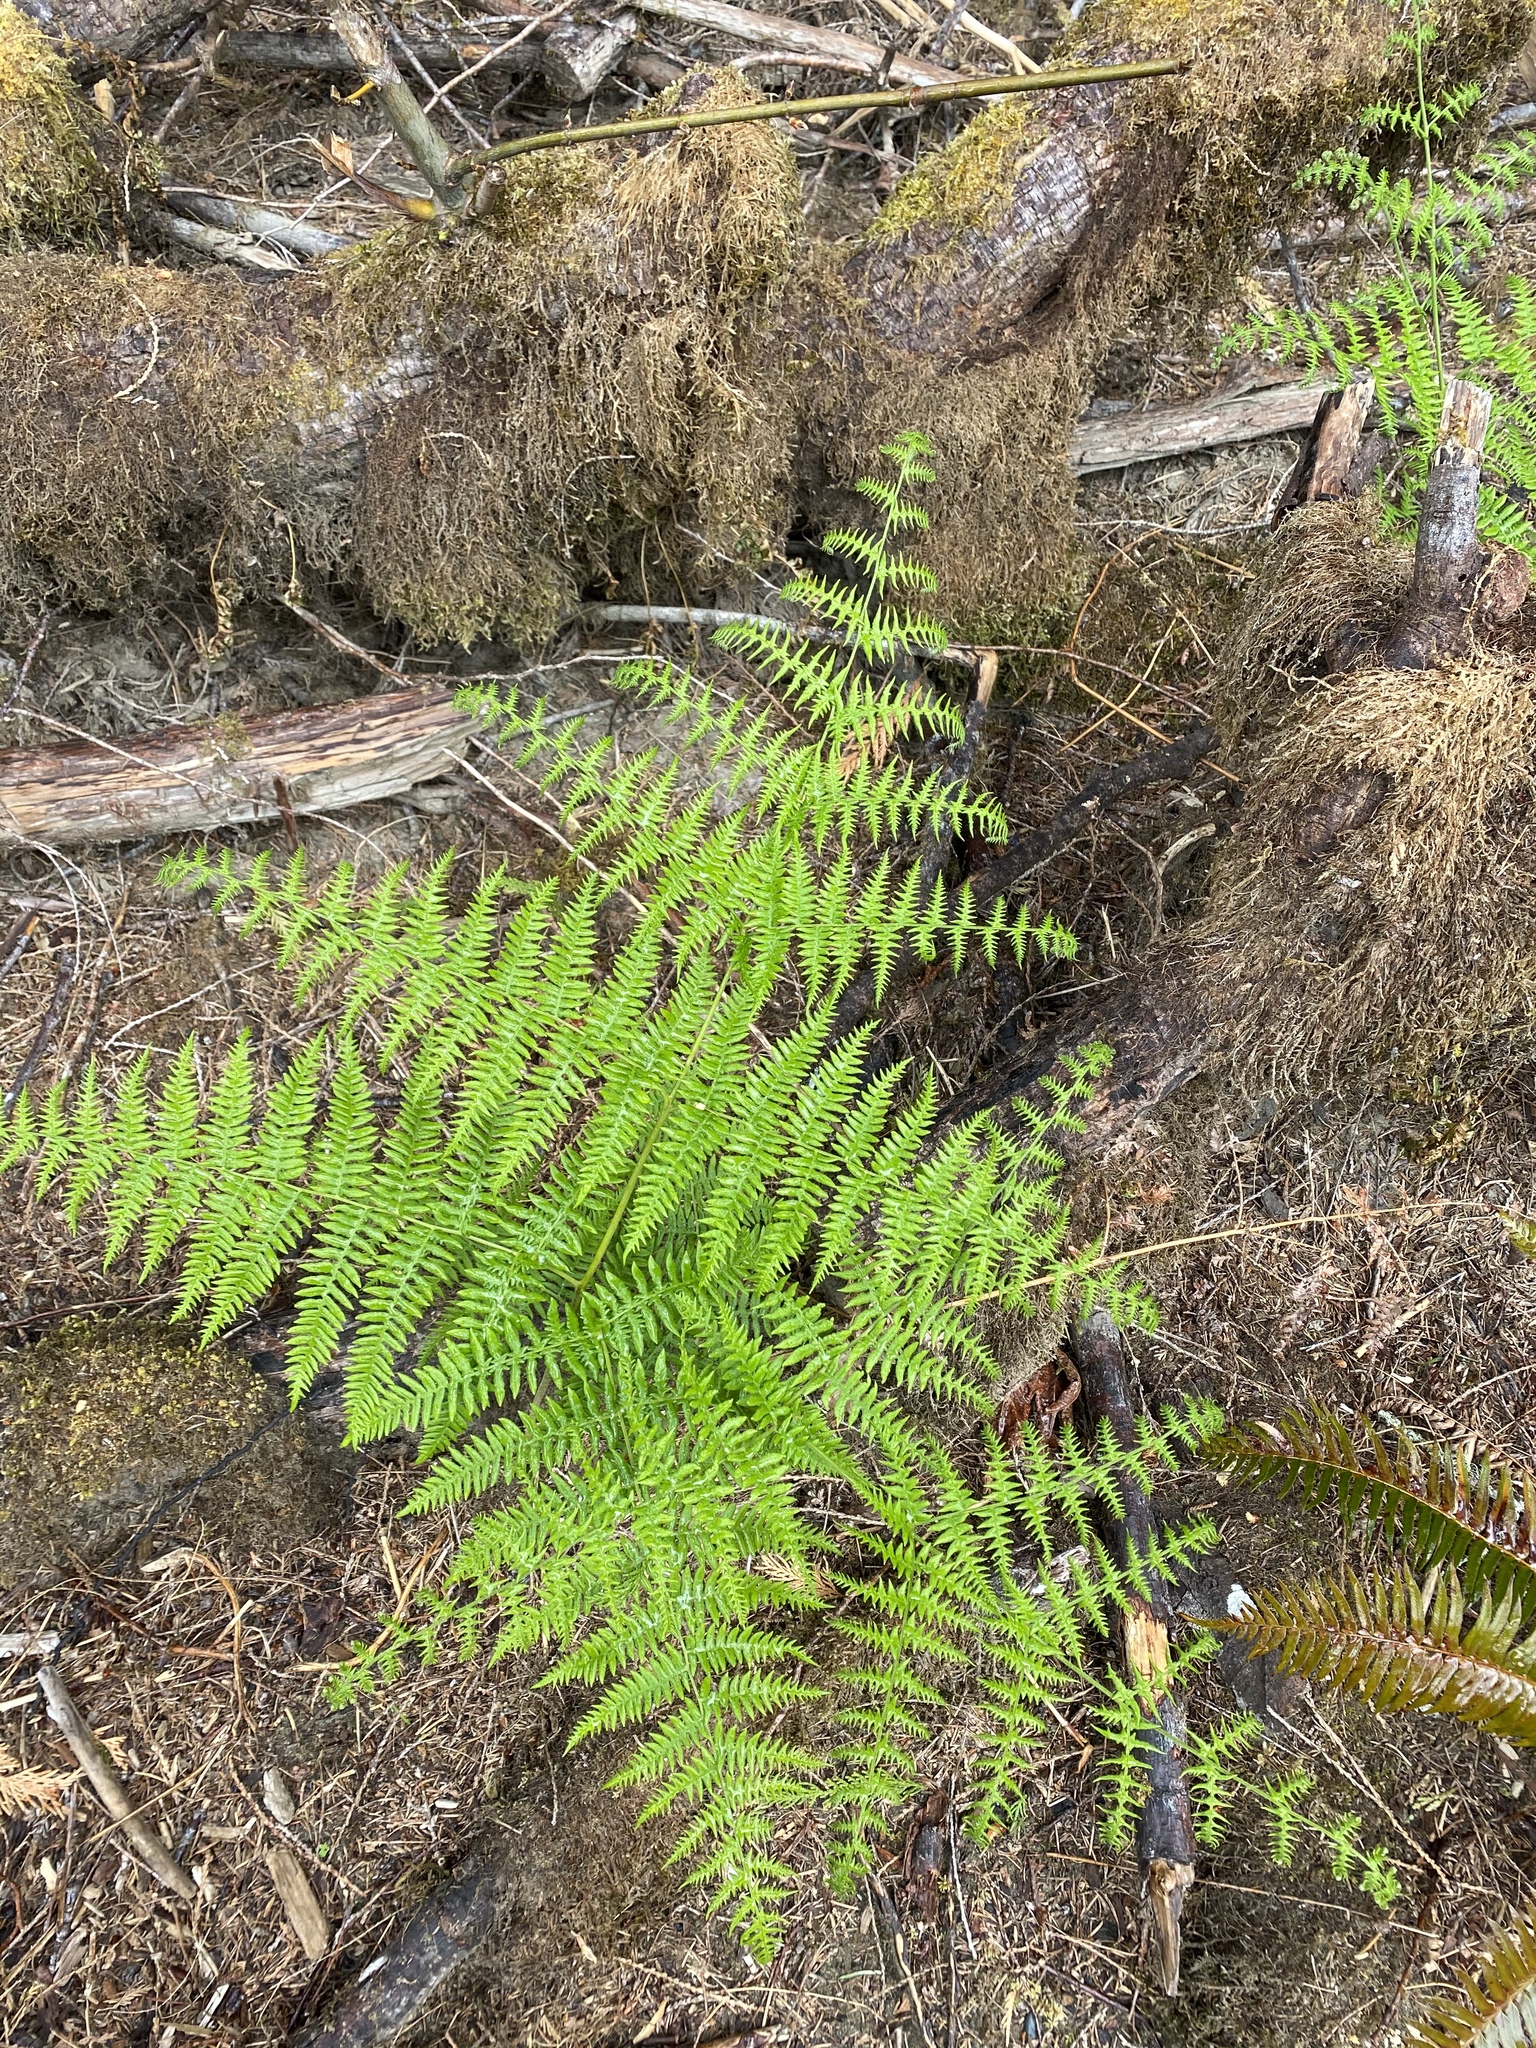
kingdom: Plantae
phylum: Tracheophyta
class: Polypodiopsida
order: Polypodiales
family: Dennstaedtiaceae
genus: Pteridium
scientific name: Pteridium aquilinum
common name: Bracken
